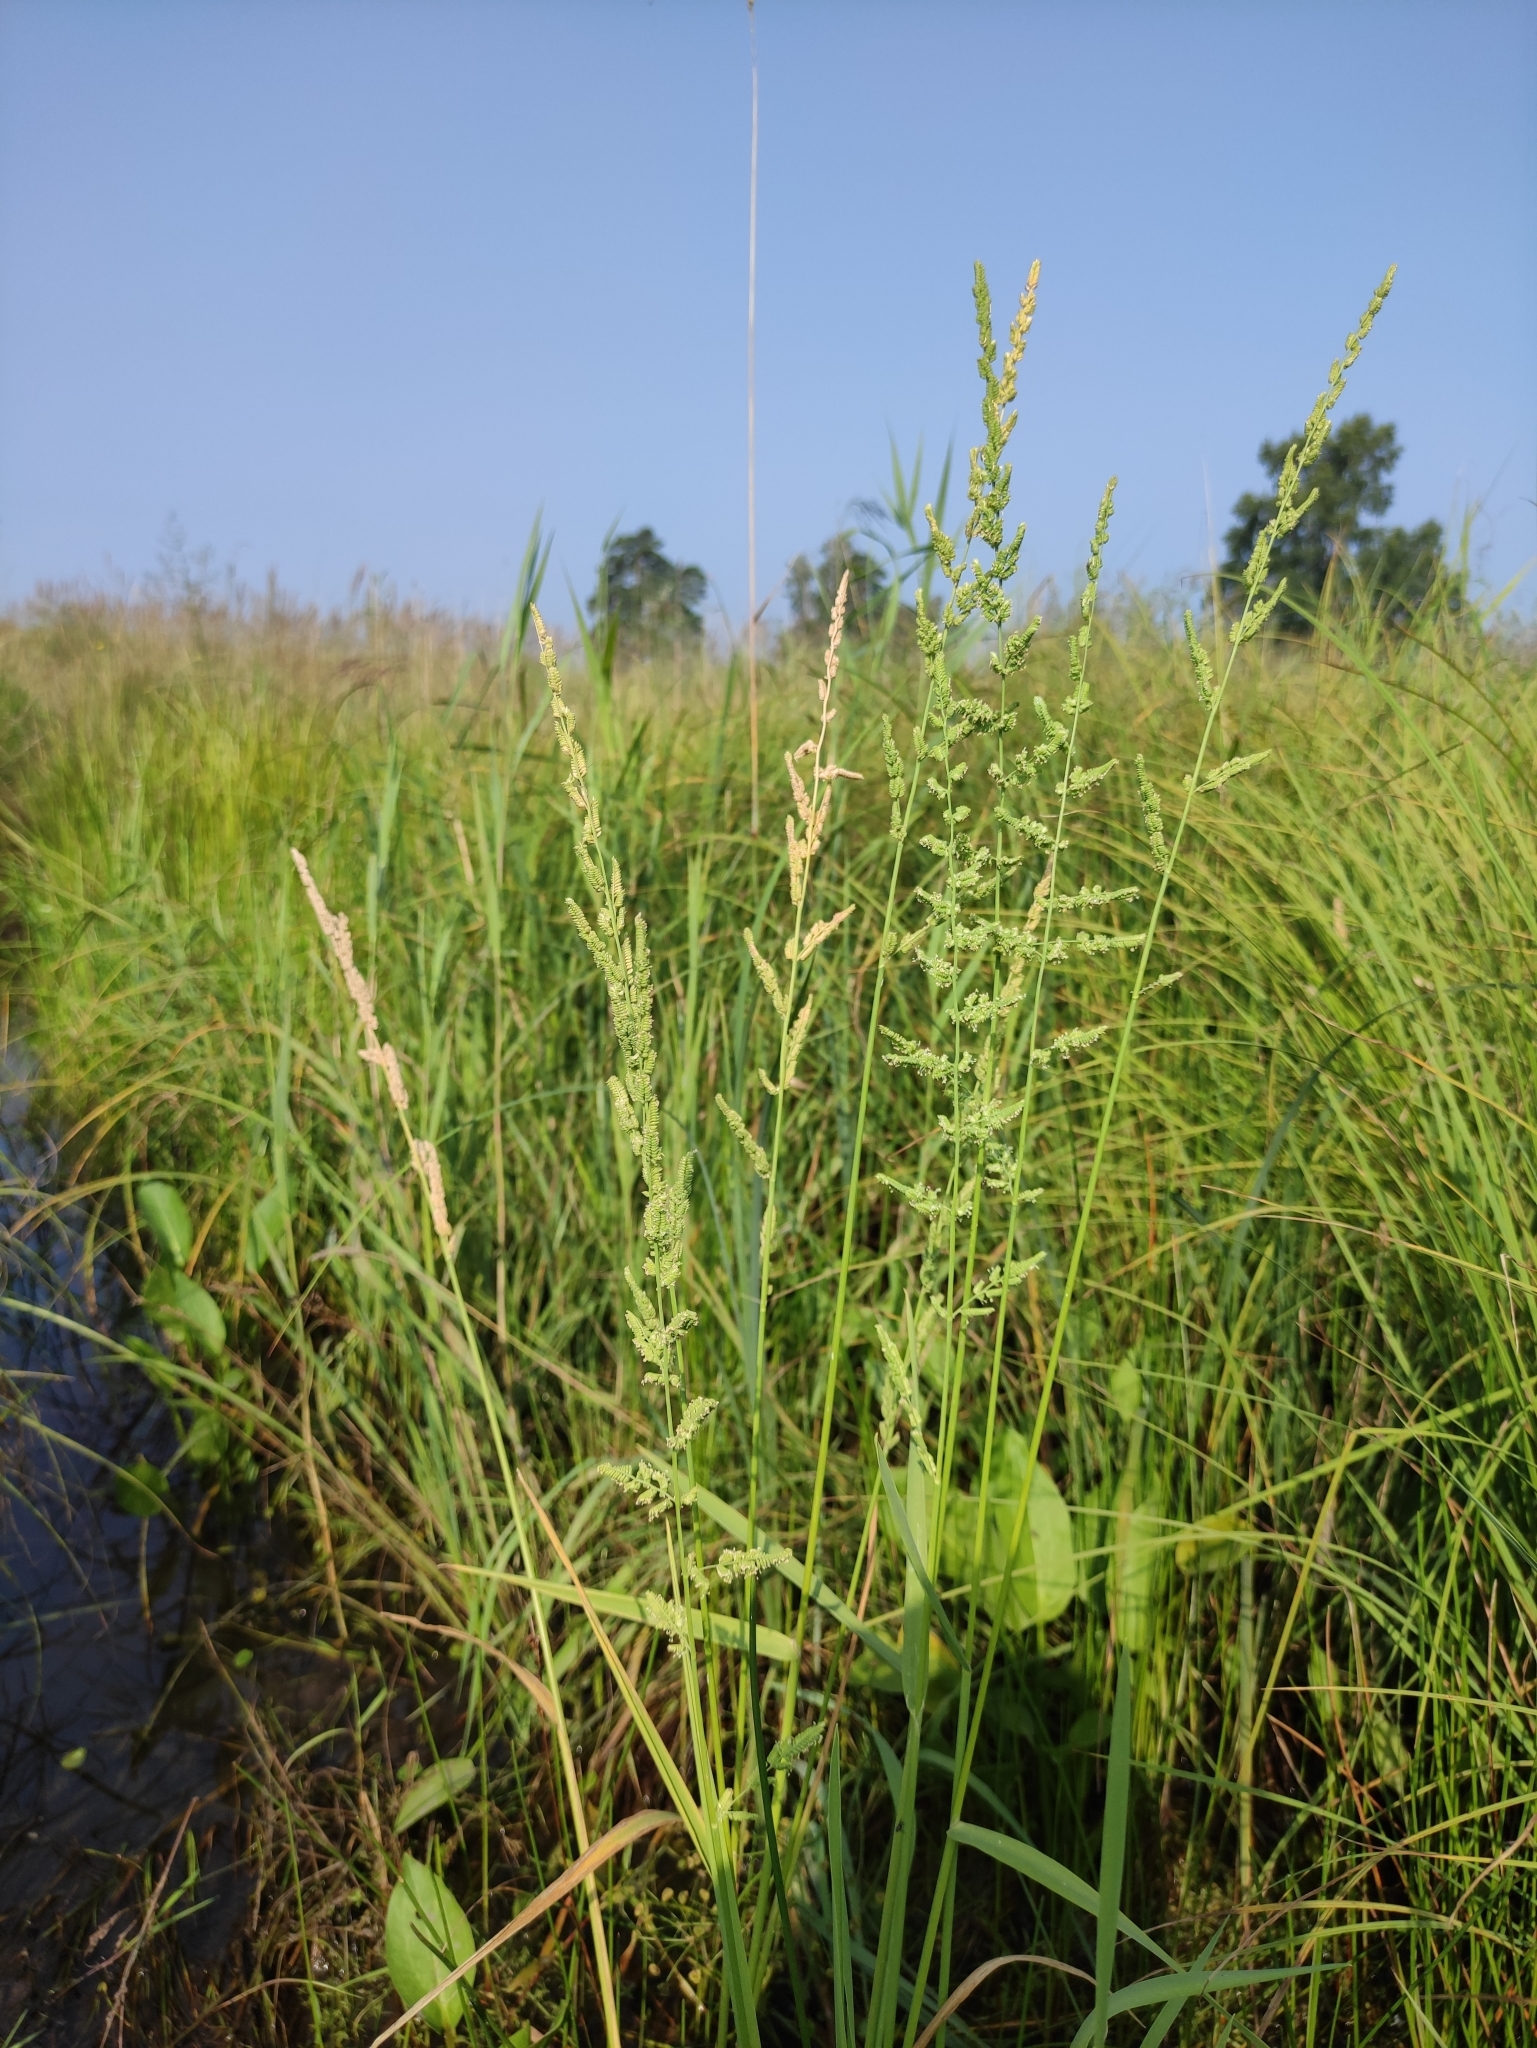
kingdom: Plantae
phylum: Tracheophyta
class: Liliopsida
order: Poales
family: Poaceae
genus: Beckmannia
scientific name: Beckmannia syzigachne
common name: American slough-grass
